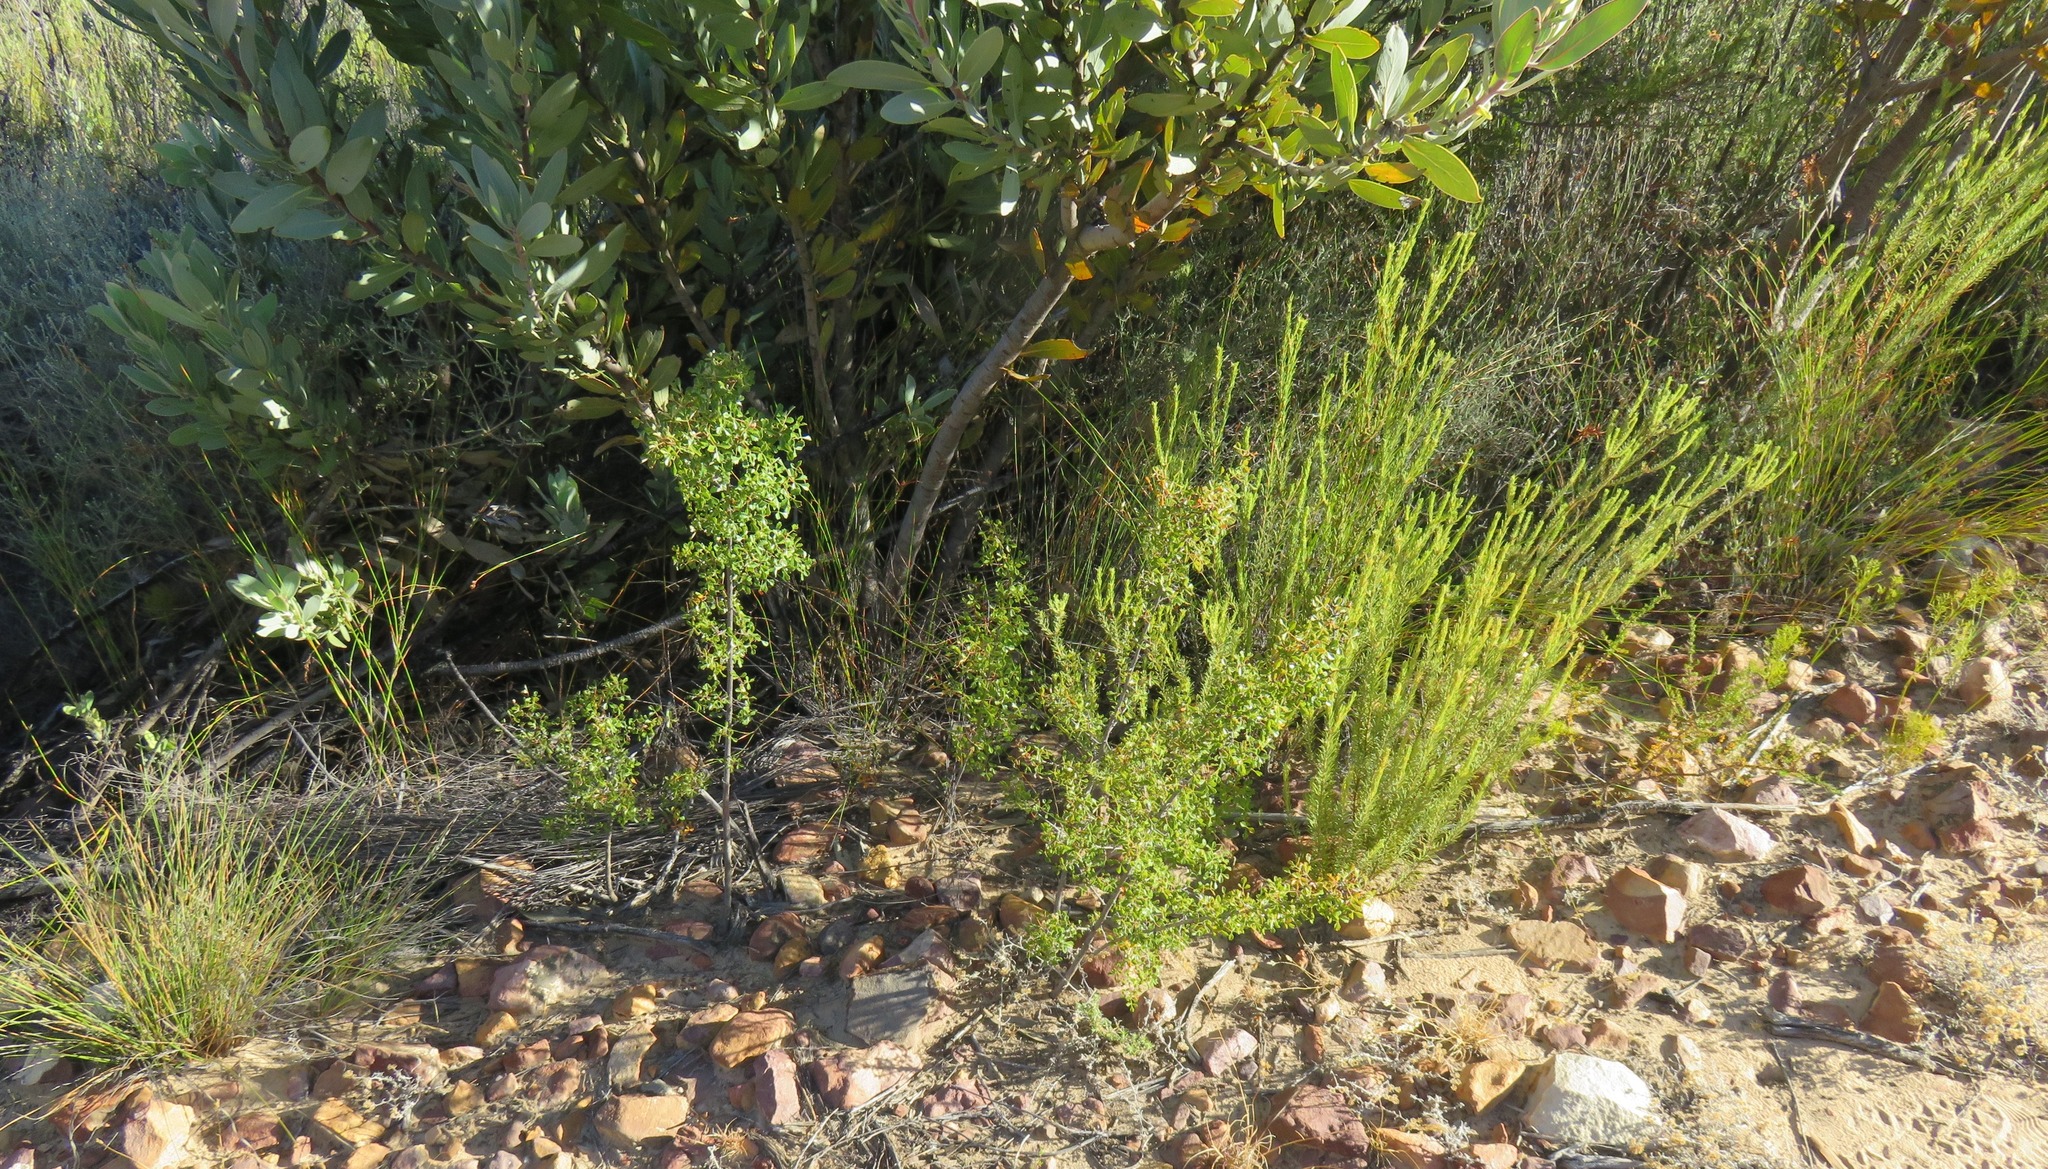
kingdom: Plantae
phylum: Tracheophyta
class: Magnoliopsida
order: Sapindales
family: Anacardiaceae
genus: Searsia
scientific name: Searsia dissecta
